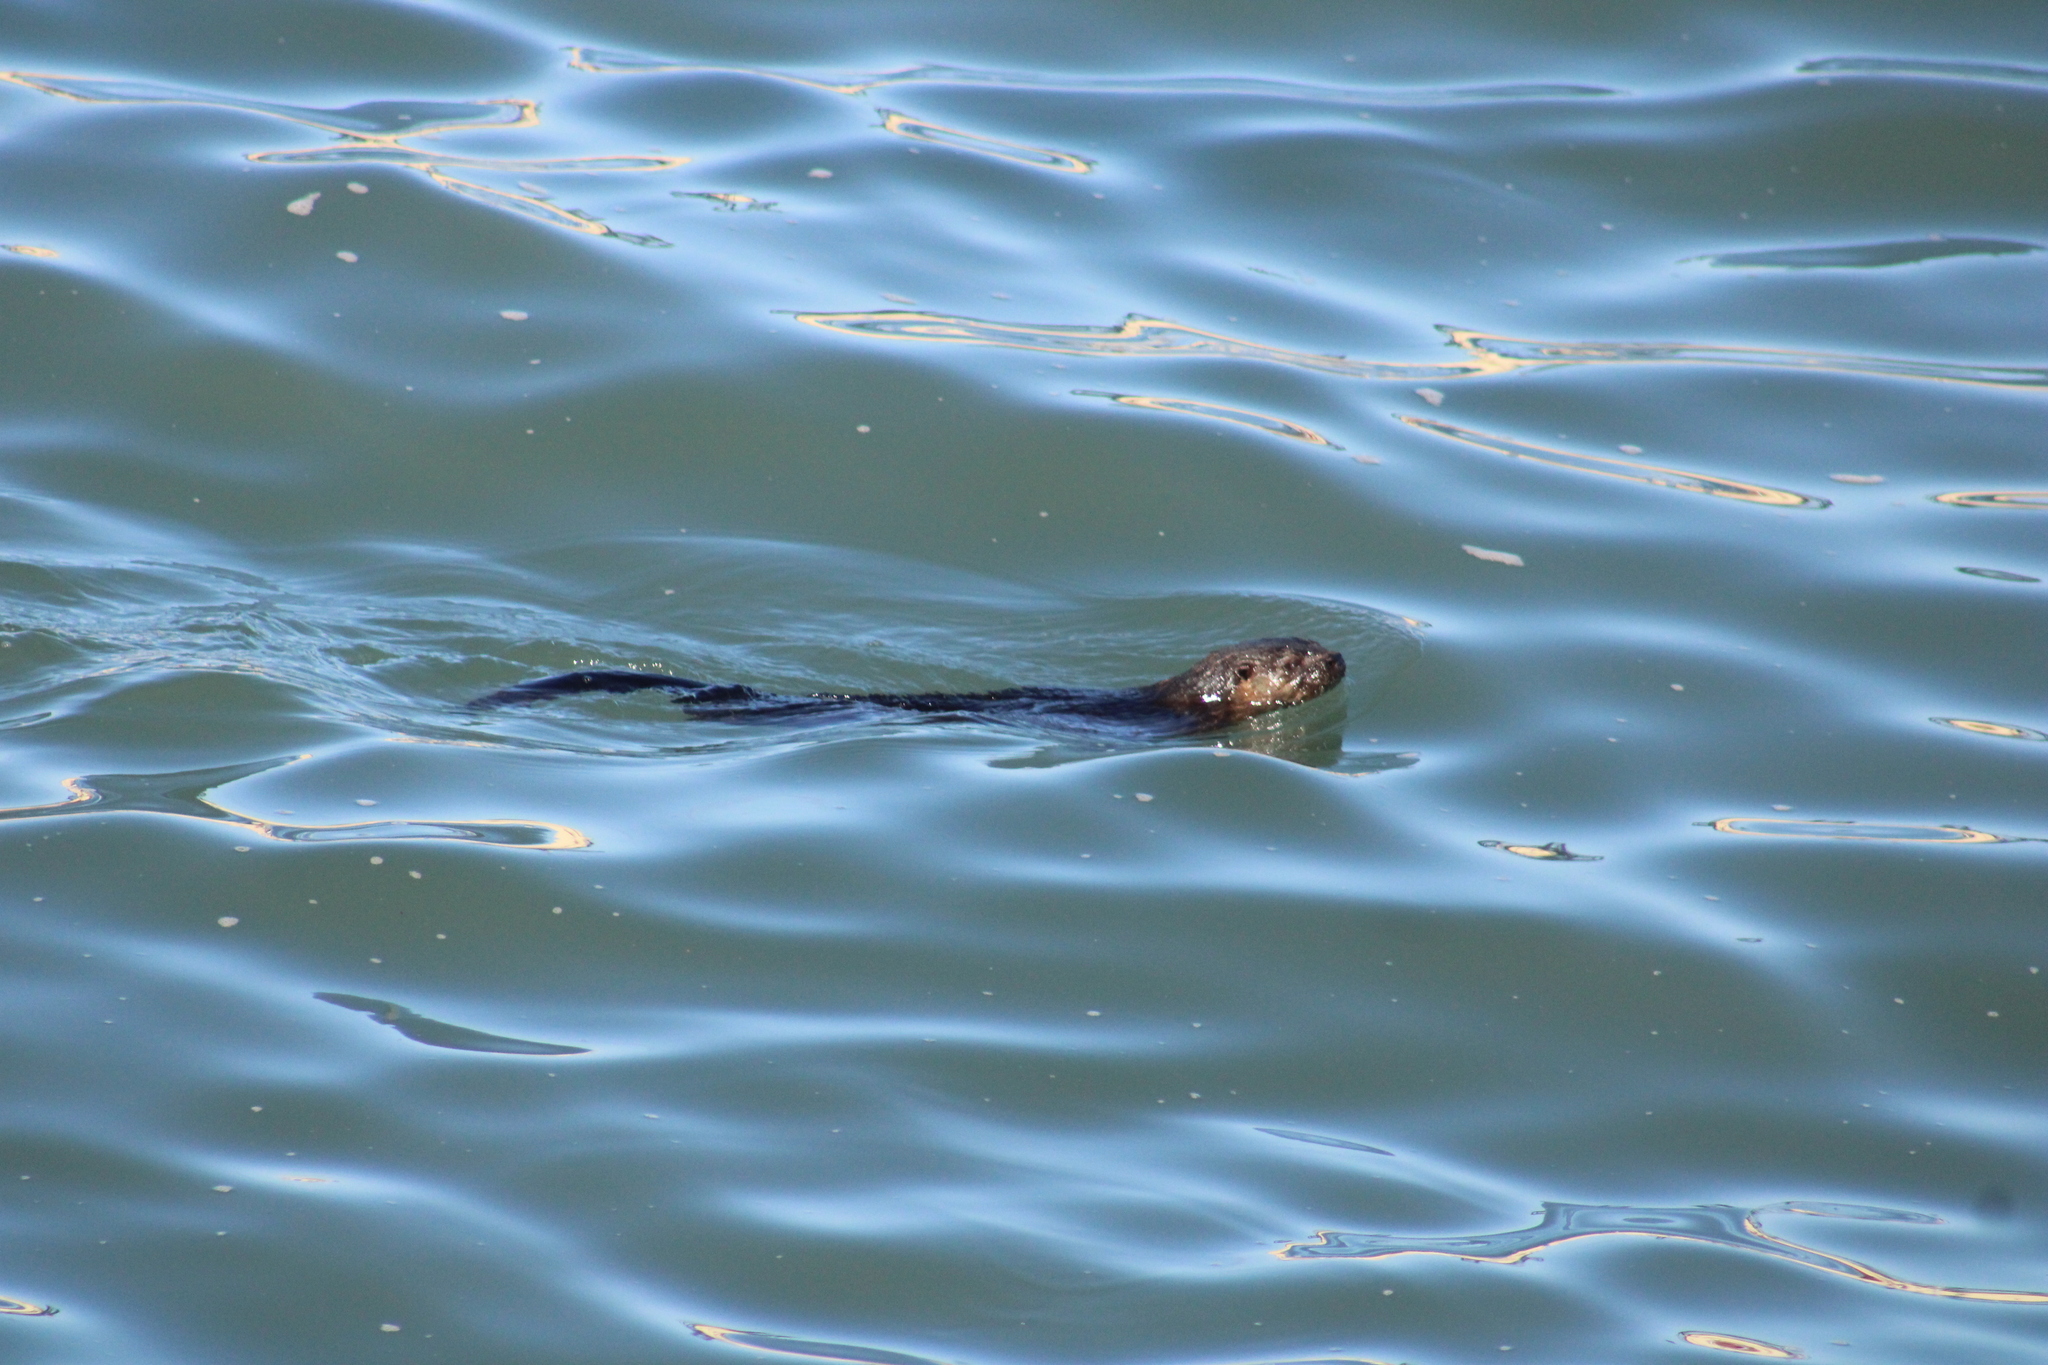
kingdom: Animalia
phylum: Chordata
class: Mammalia
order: Carnivora
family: Mustelidae
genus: Lontra
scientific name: Lontra felina
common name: Marine otter
